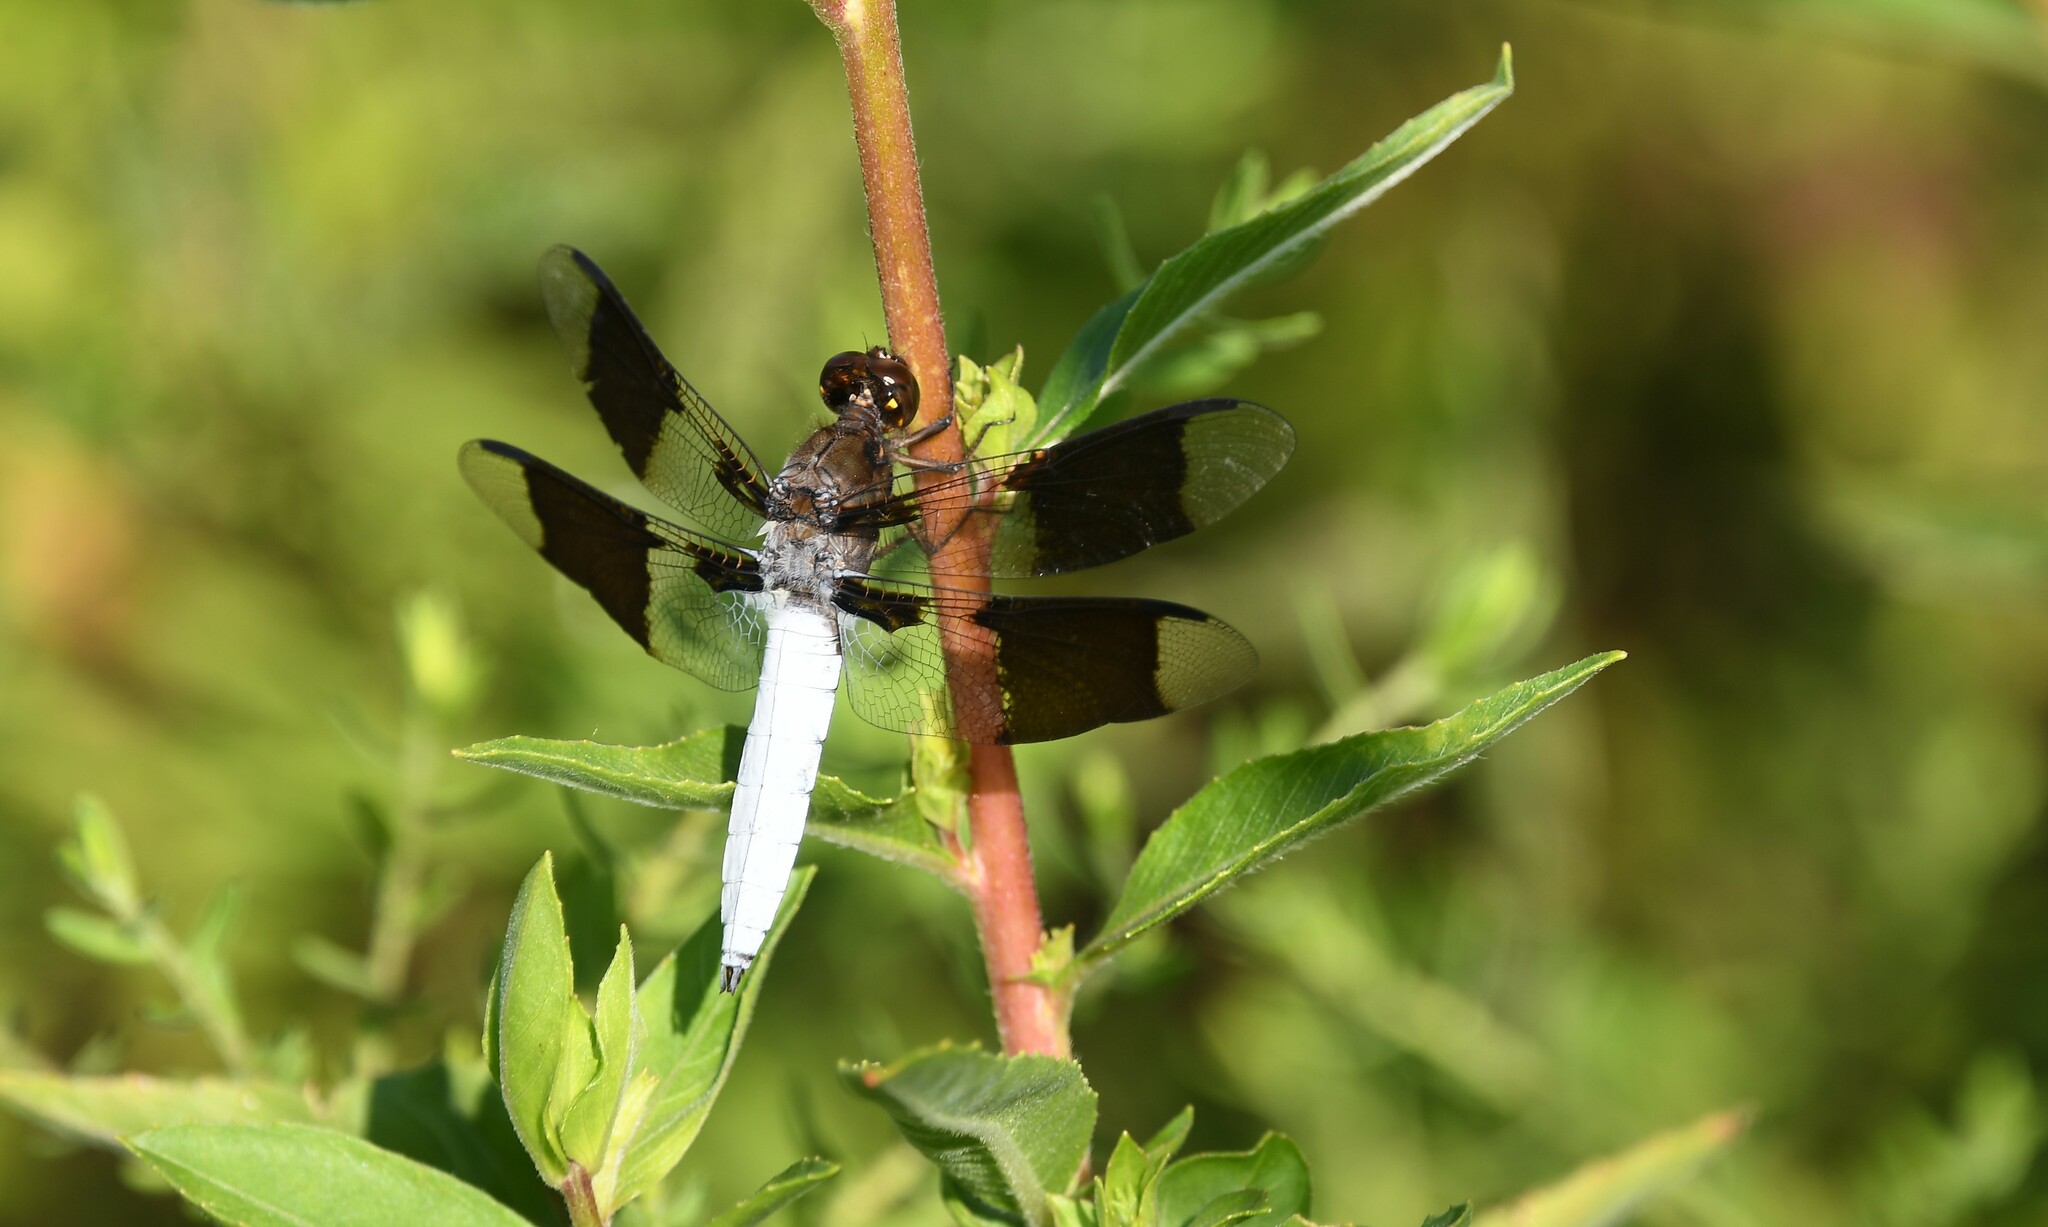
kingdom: Animalia
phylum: Arthropoda
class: Insecta
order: Odonata
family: Libellulidae
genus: Plathemis
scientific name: Plathemis lydia
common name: Common whitetail
